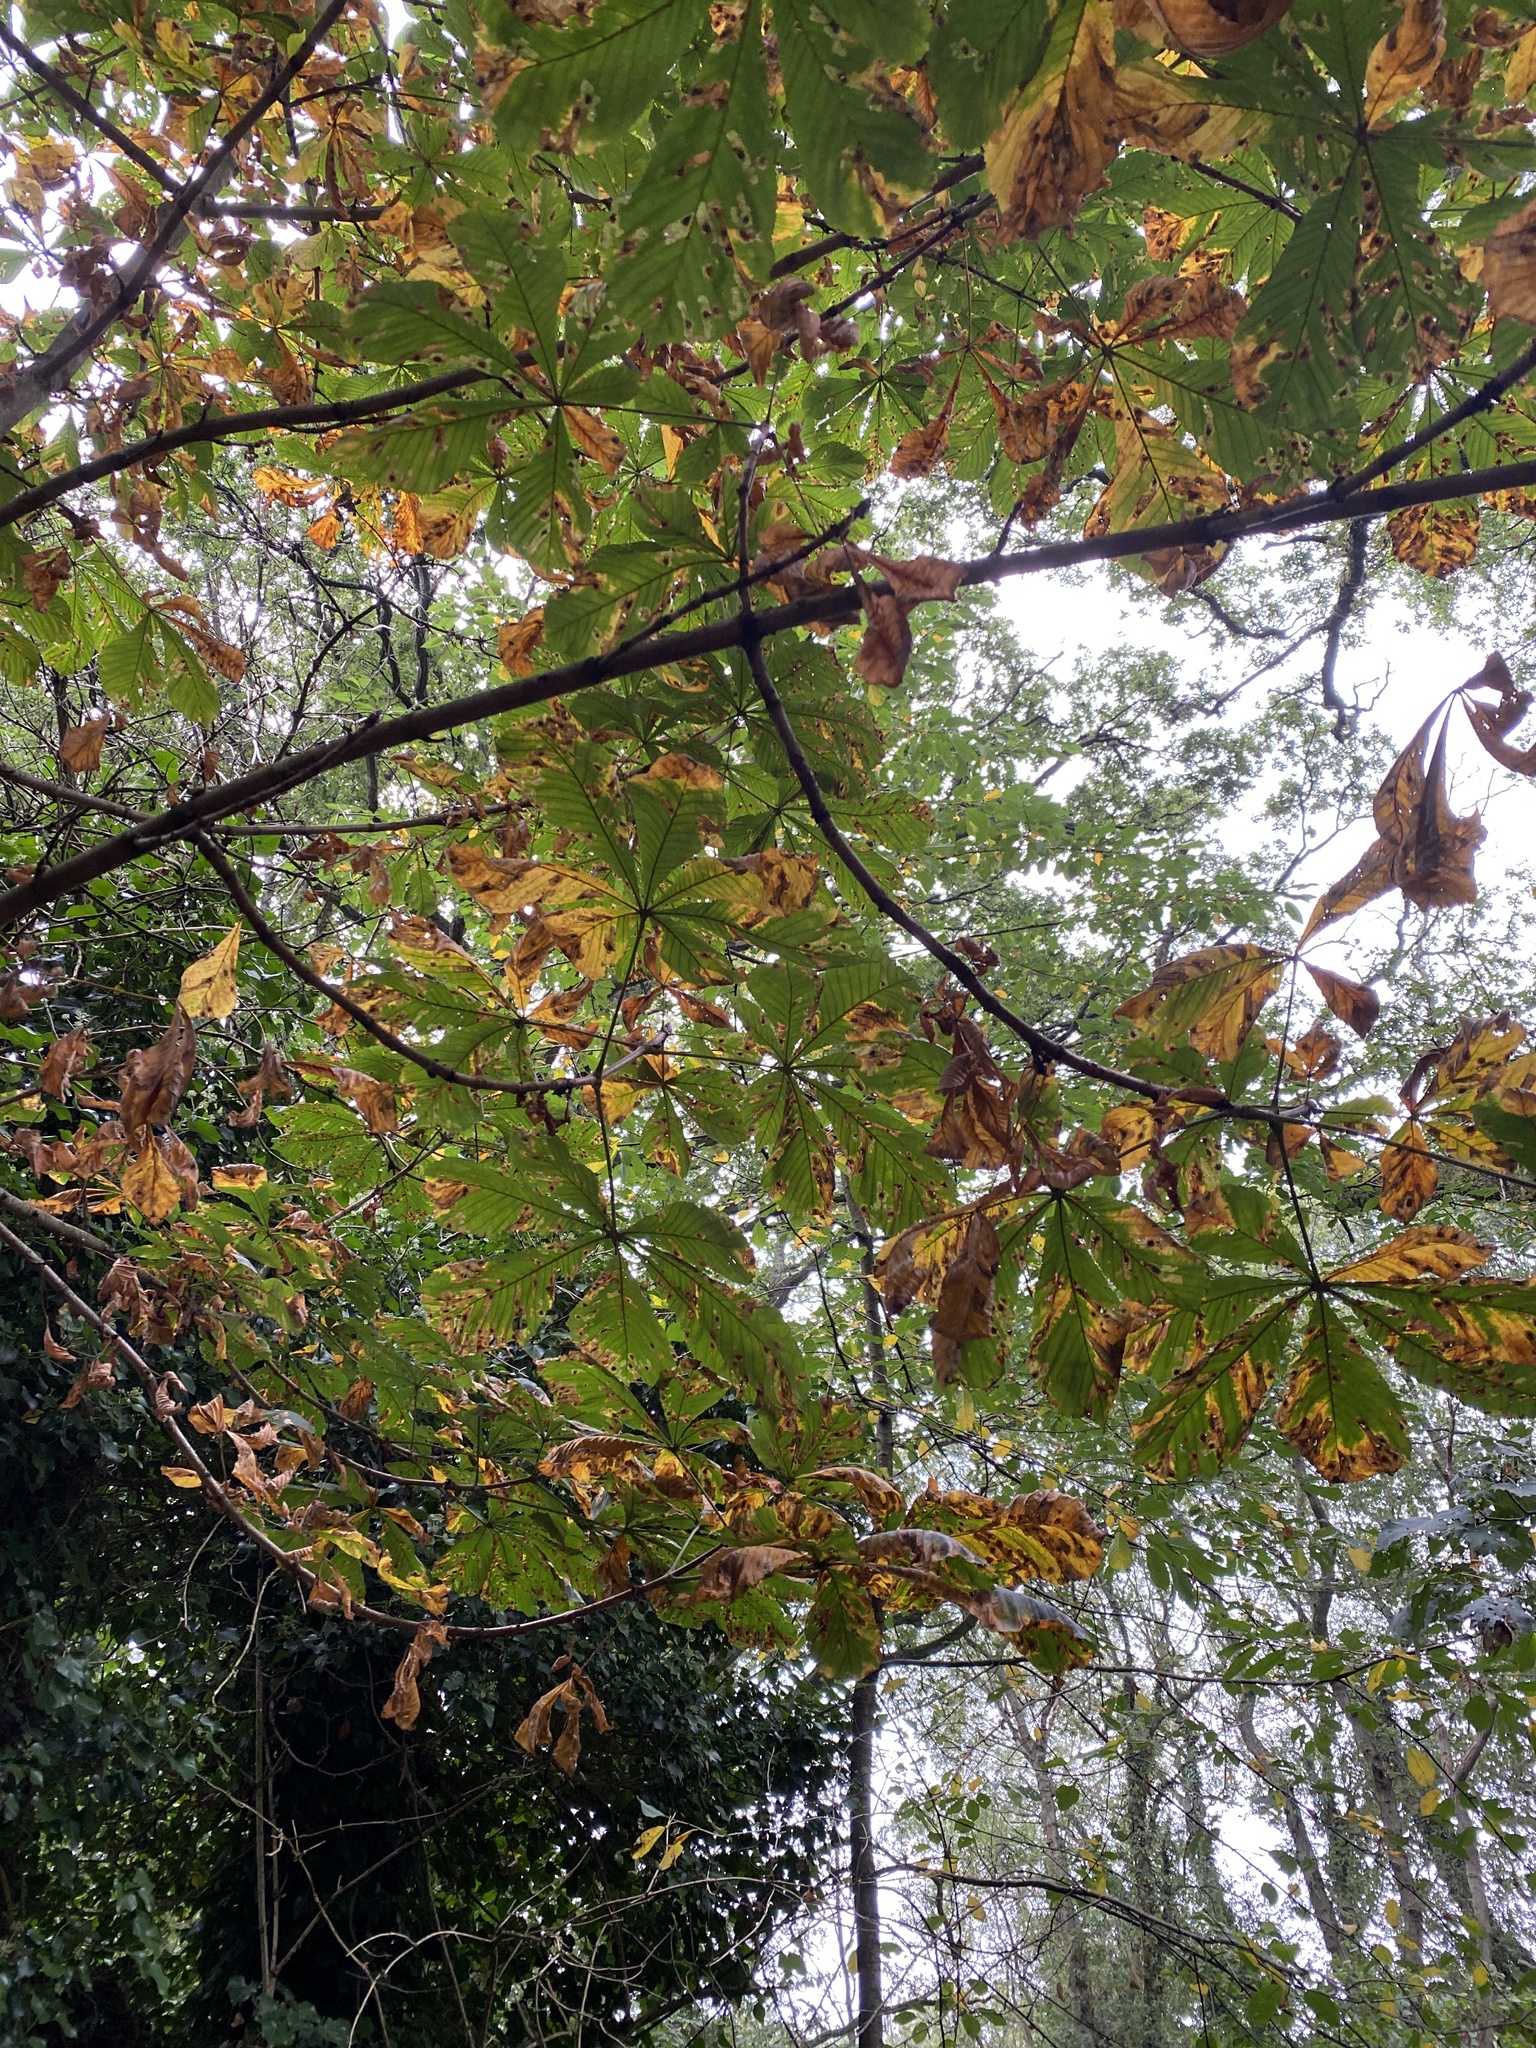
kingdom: Plantae
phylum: Tracheophyta
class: Magnoliopsida
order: Sapindales
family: Sapindaceae
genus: Aesculus
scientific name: Aesculus hippocastanum
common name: Horse-chestnut
